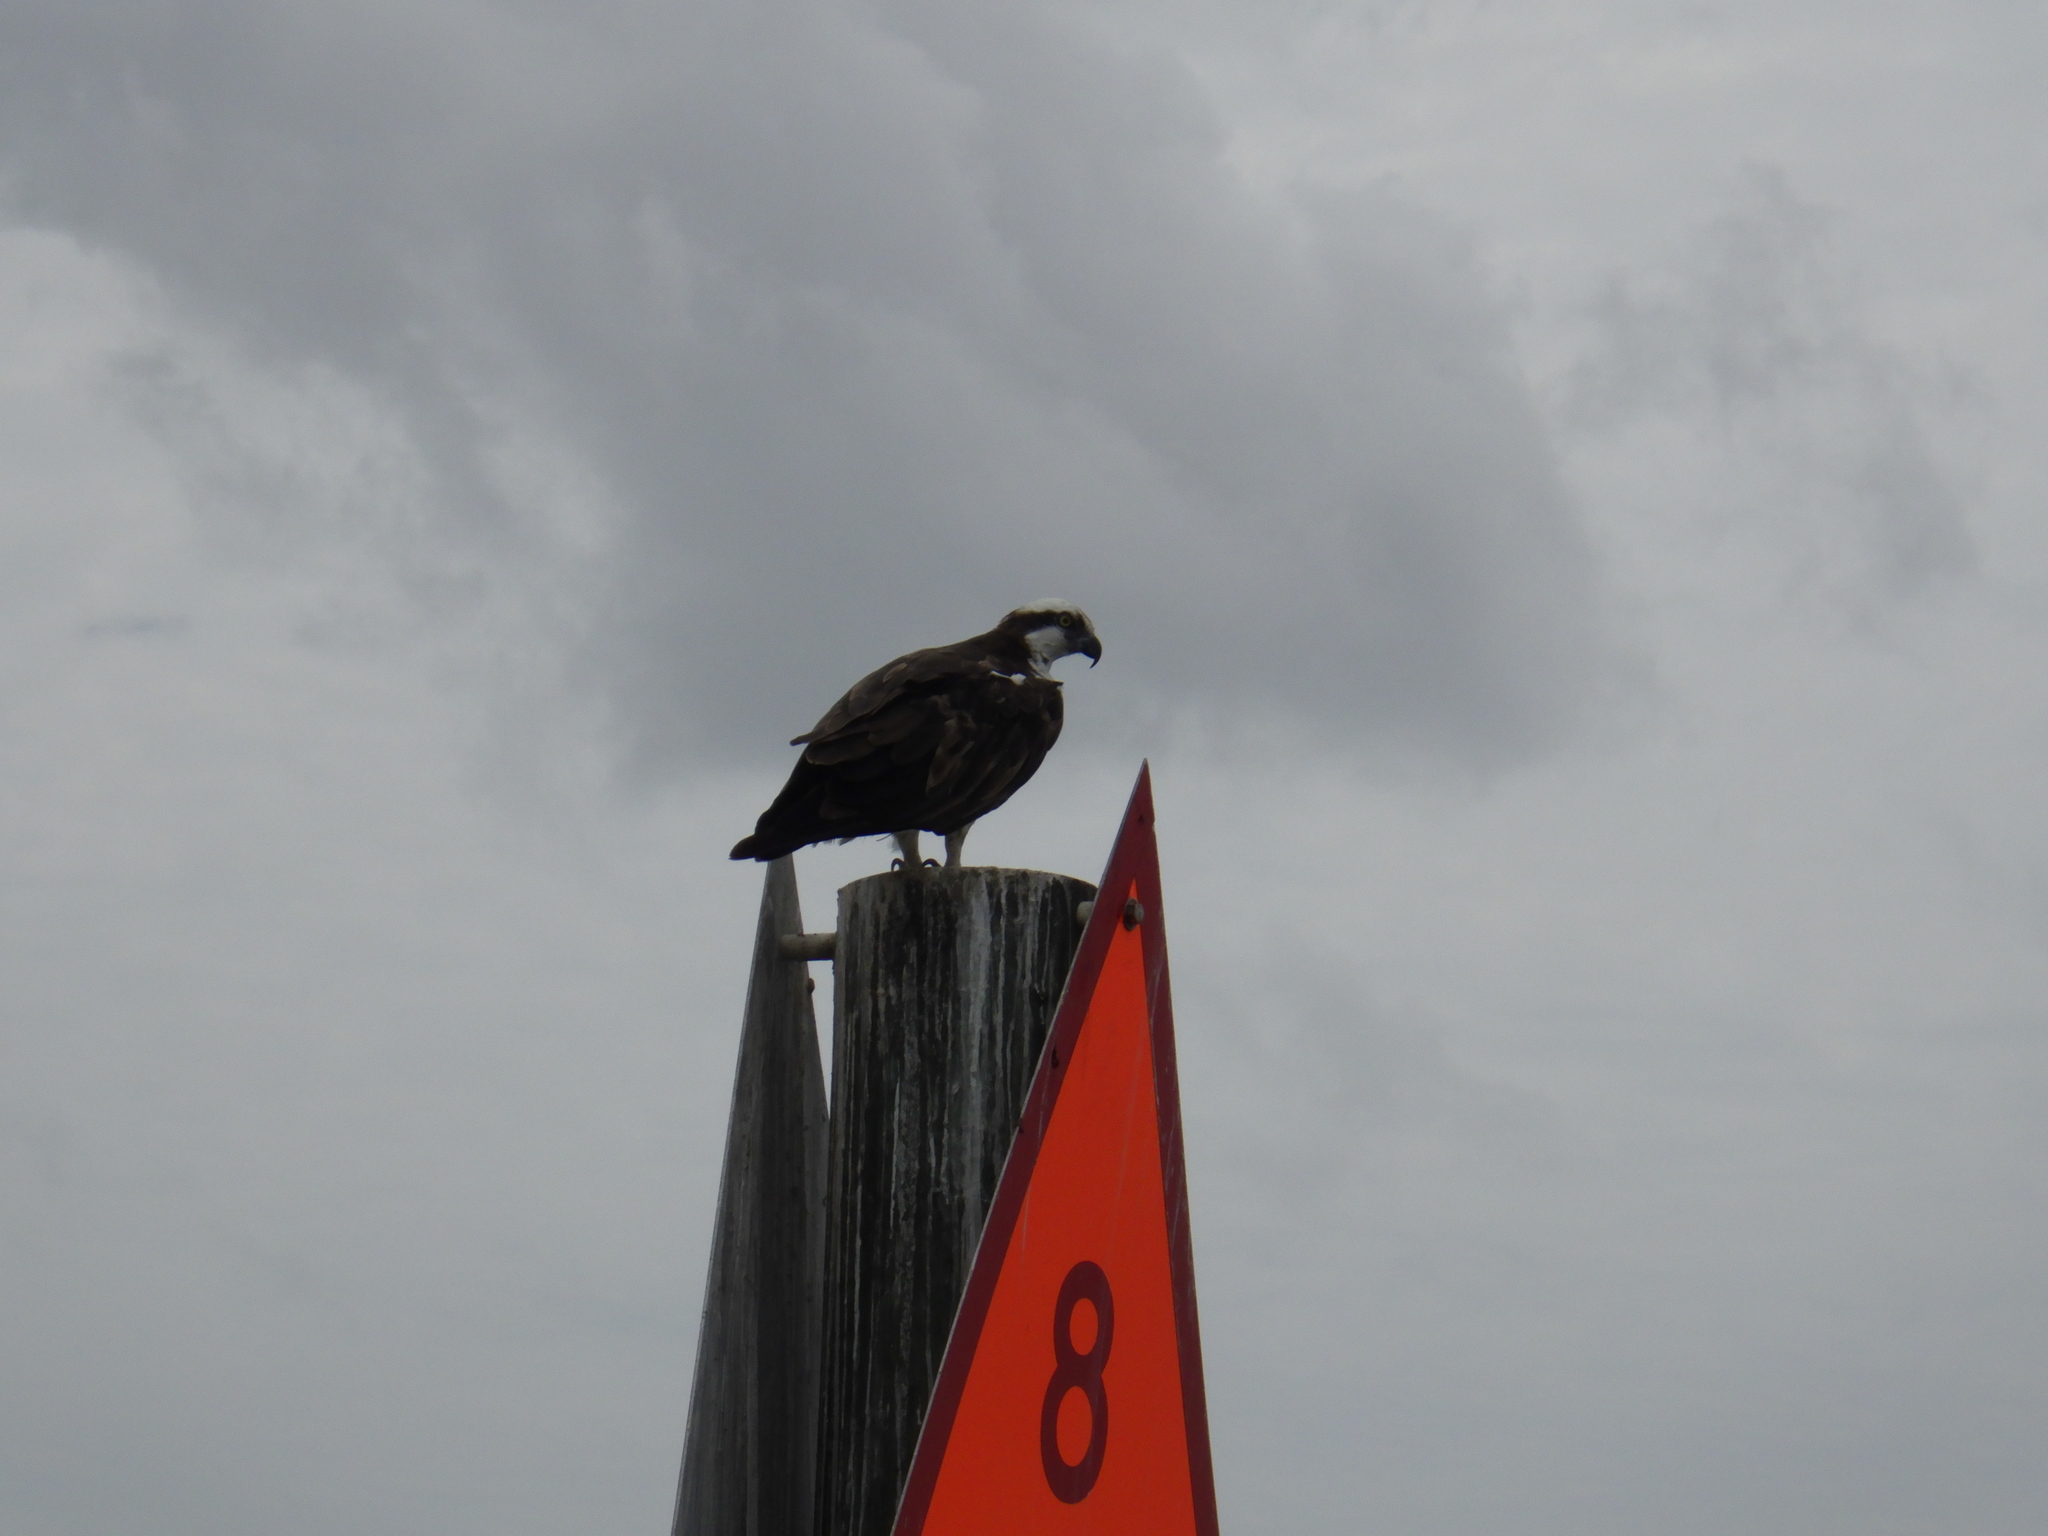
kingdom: Animalia
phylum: Chordata
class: Aves
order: Accipitriformes
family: Pandionidae
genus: Pandion
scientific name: Pandion haliaetus
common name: Osprey
